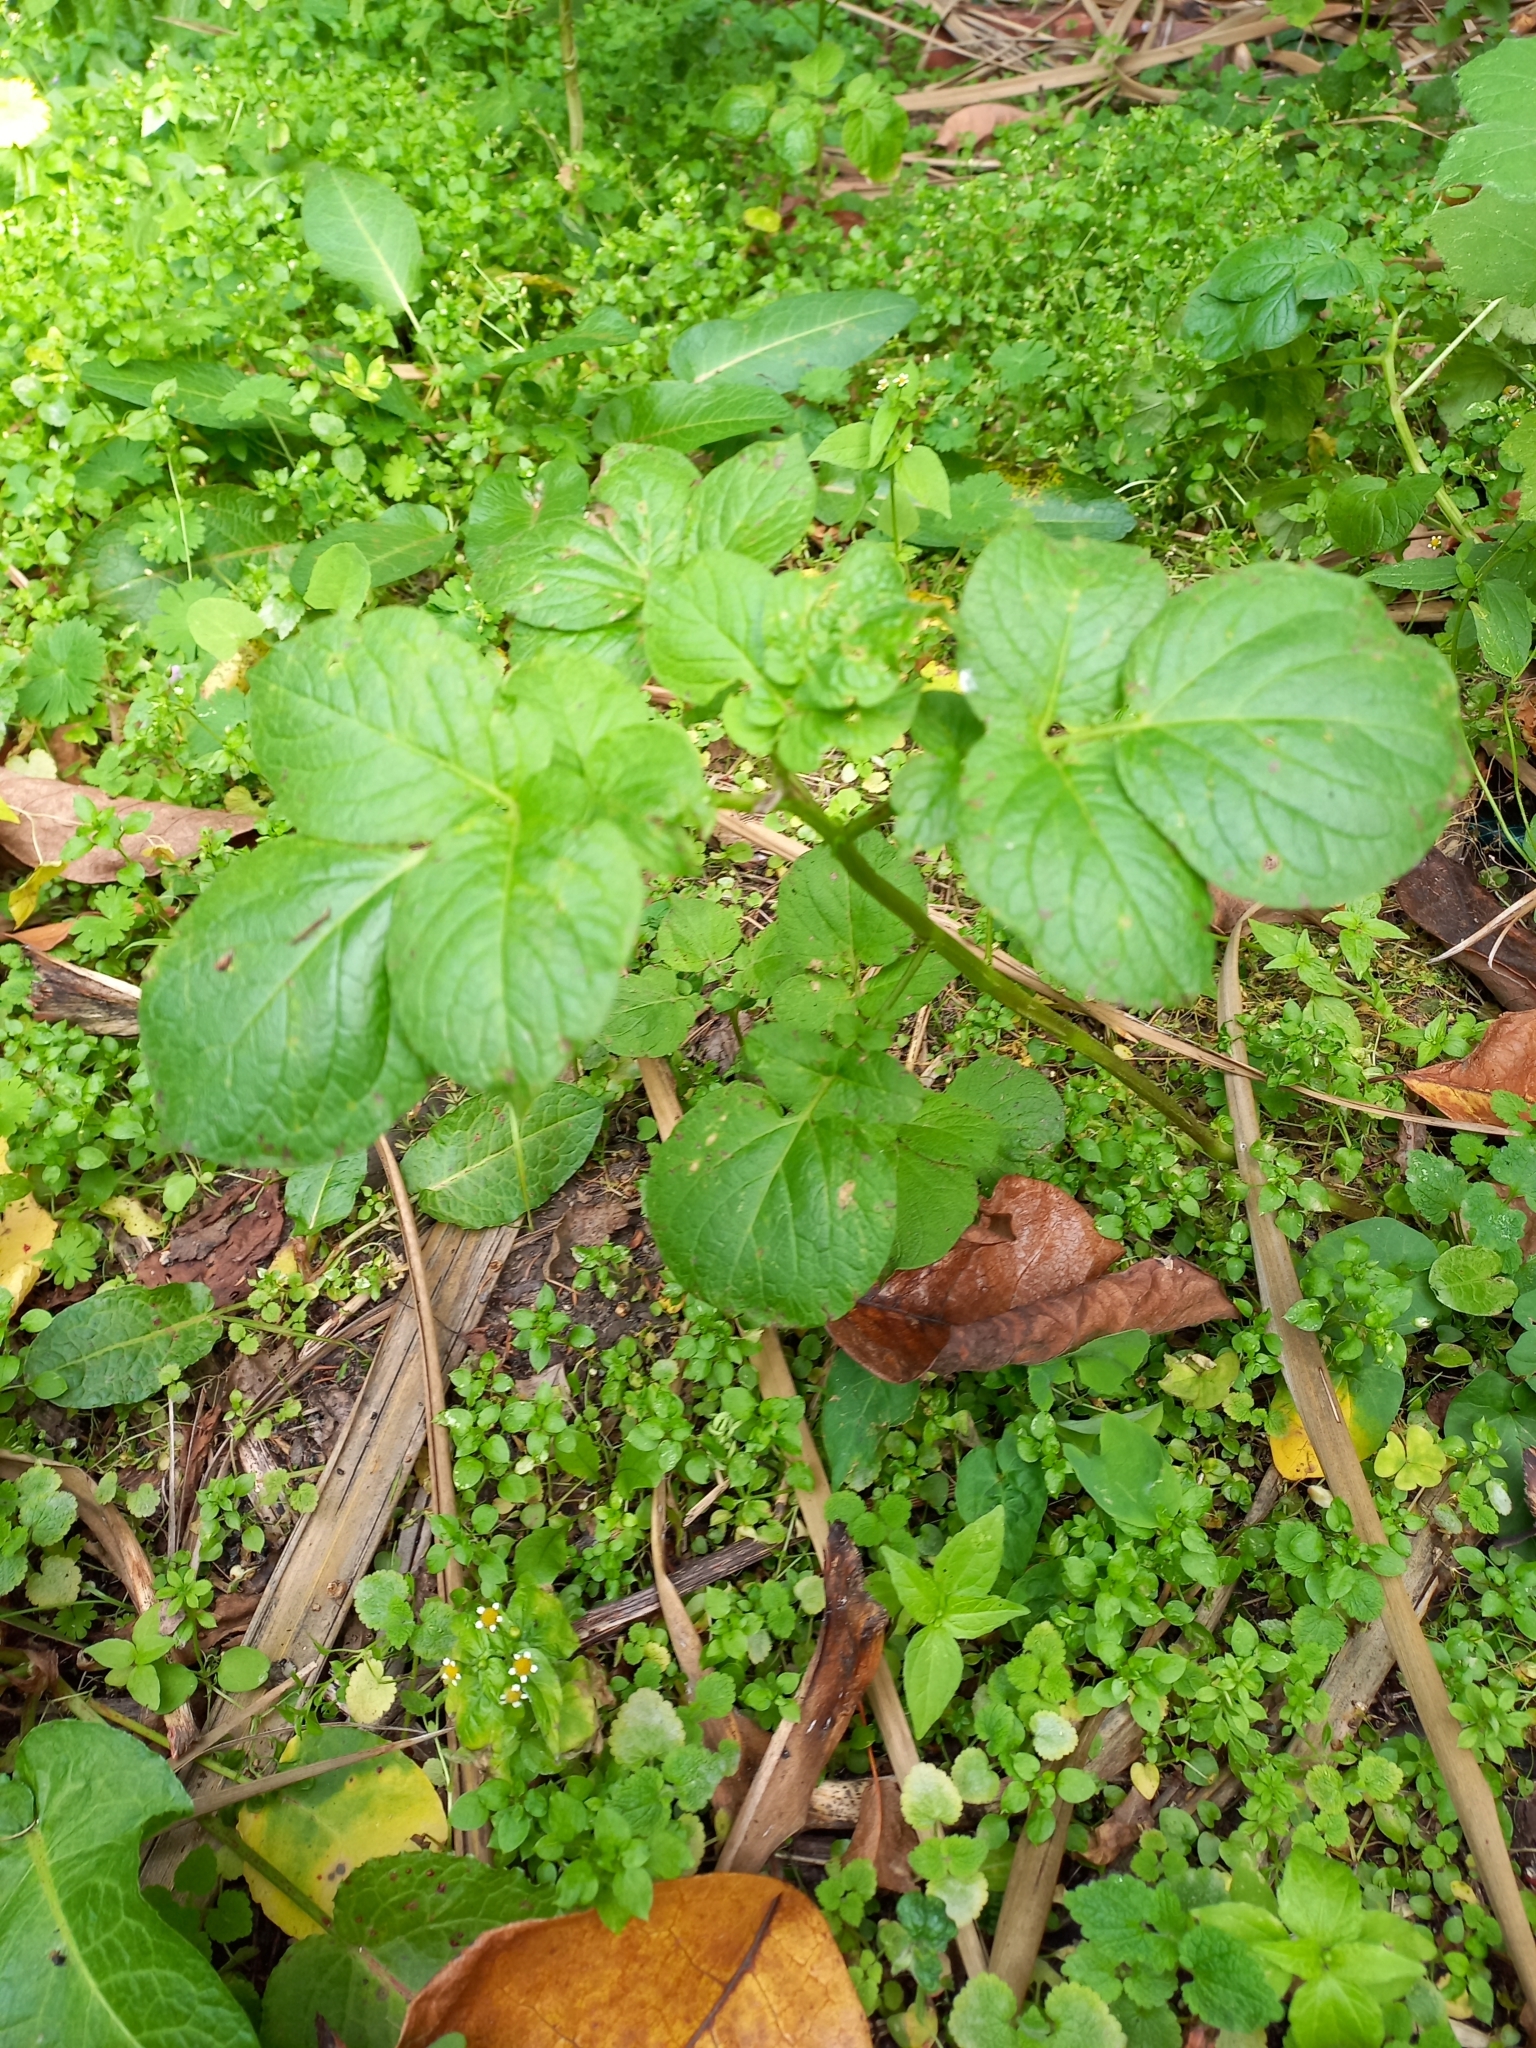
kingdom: Plantae
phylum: Tracheophyta
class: Magnoliopsida
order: Solanales
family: Solanaceae
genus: Solanum
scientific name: Solanum tuberosum
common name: Potato
